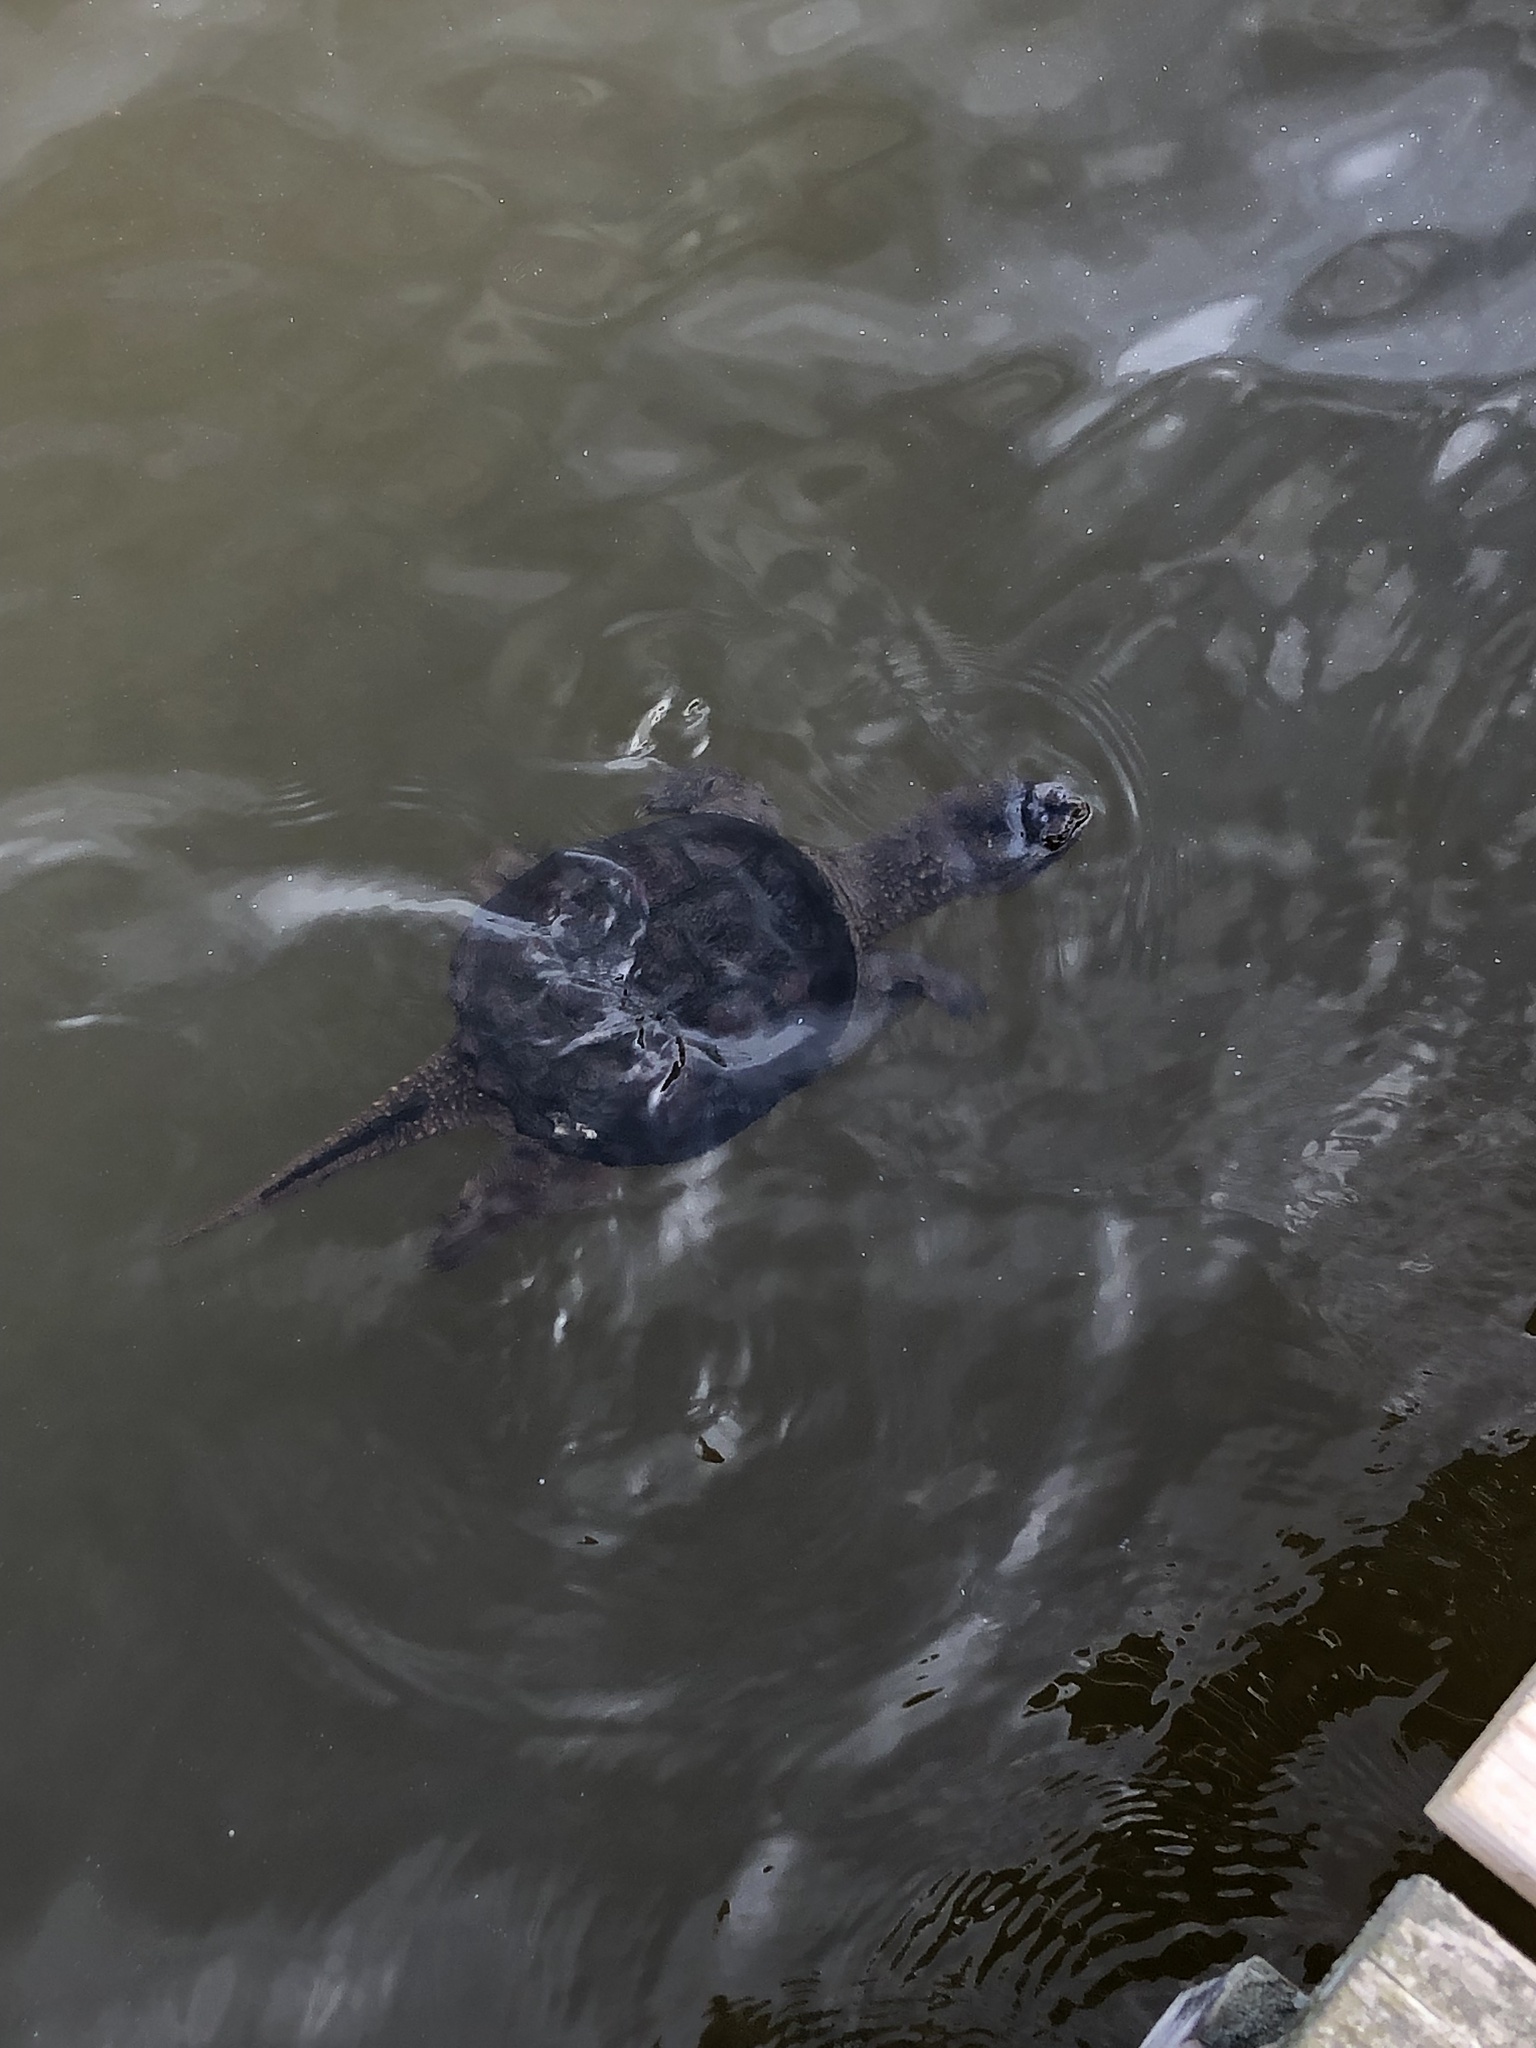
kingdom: Animalia
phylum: Chordata
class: Testudines
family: Chelydridae
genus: Chelydra
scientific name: Chelydra serpentina
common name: Common snapping turtle
